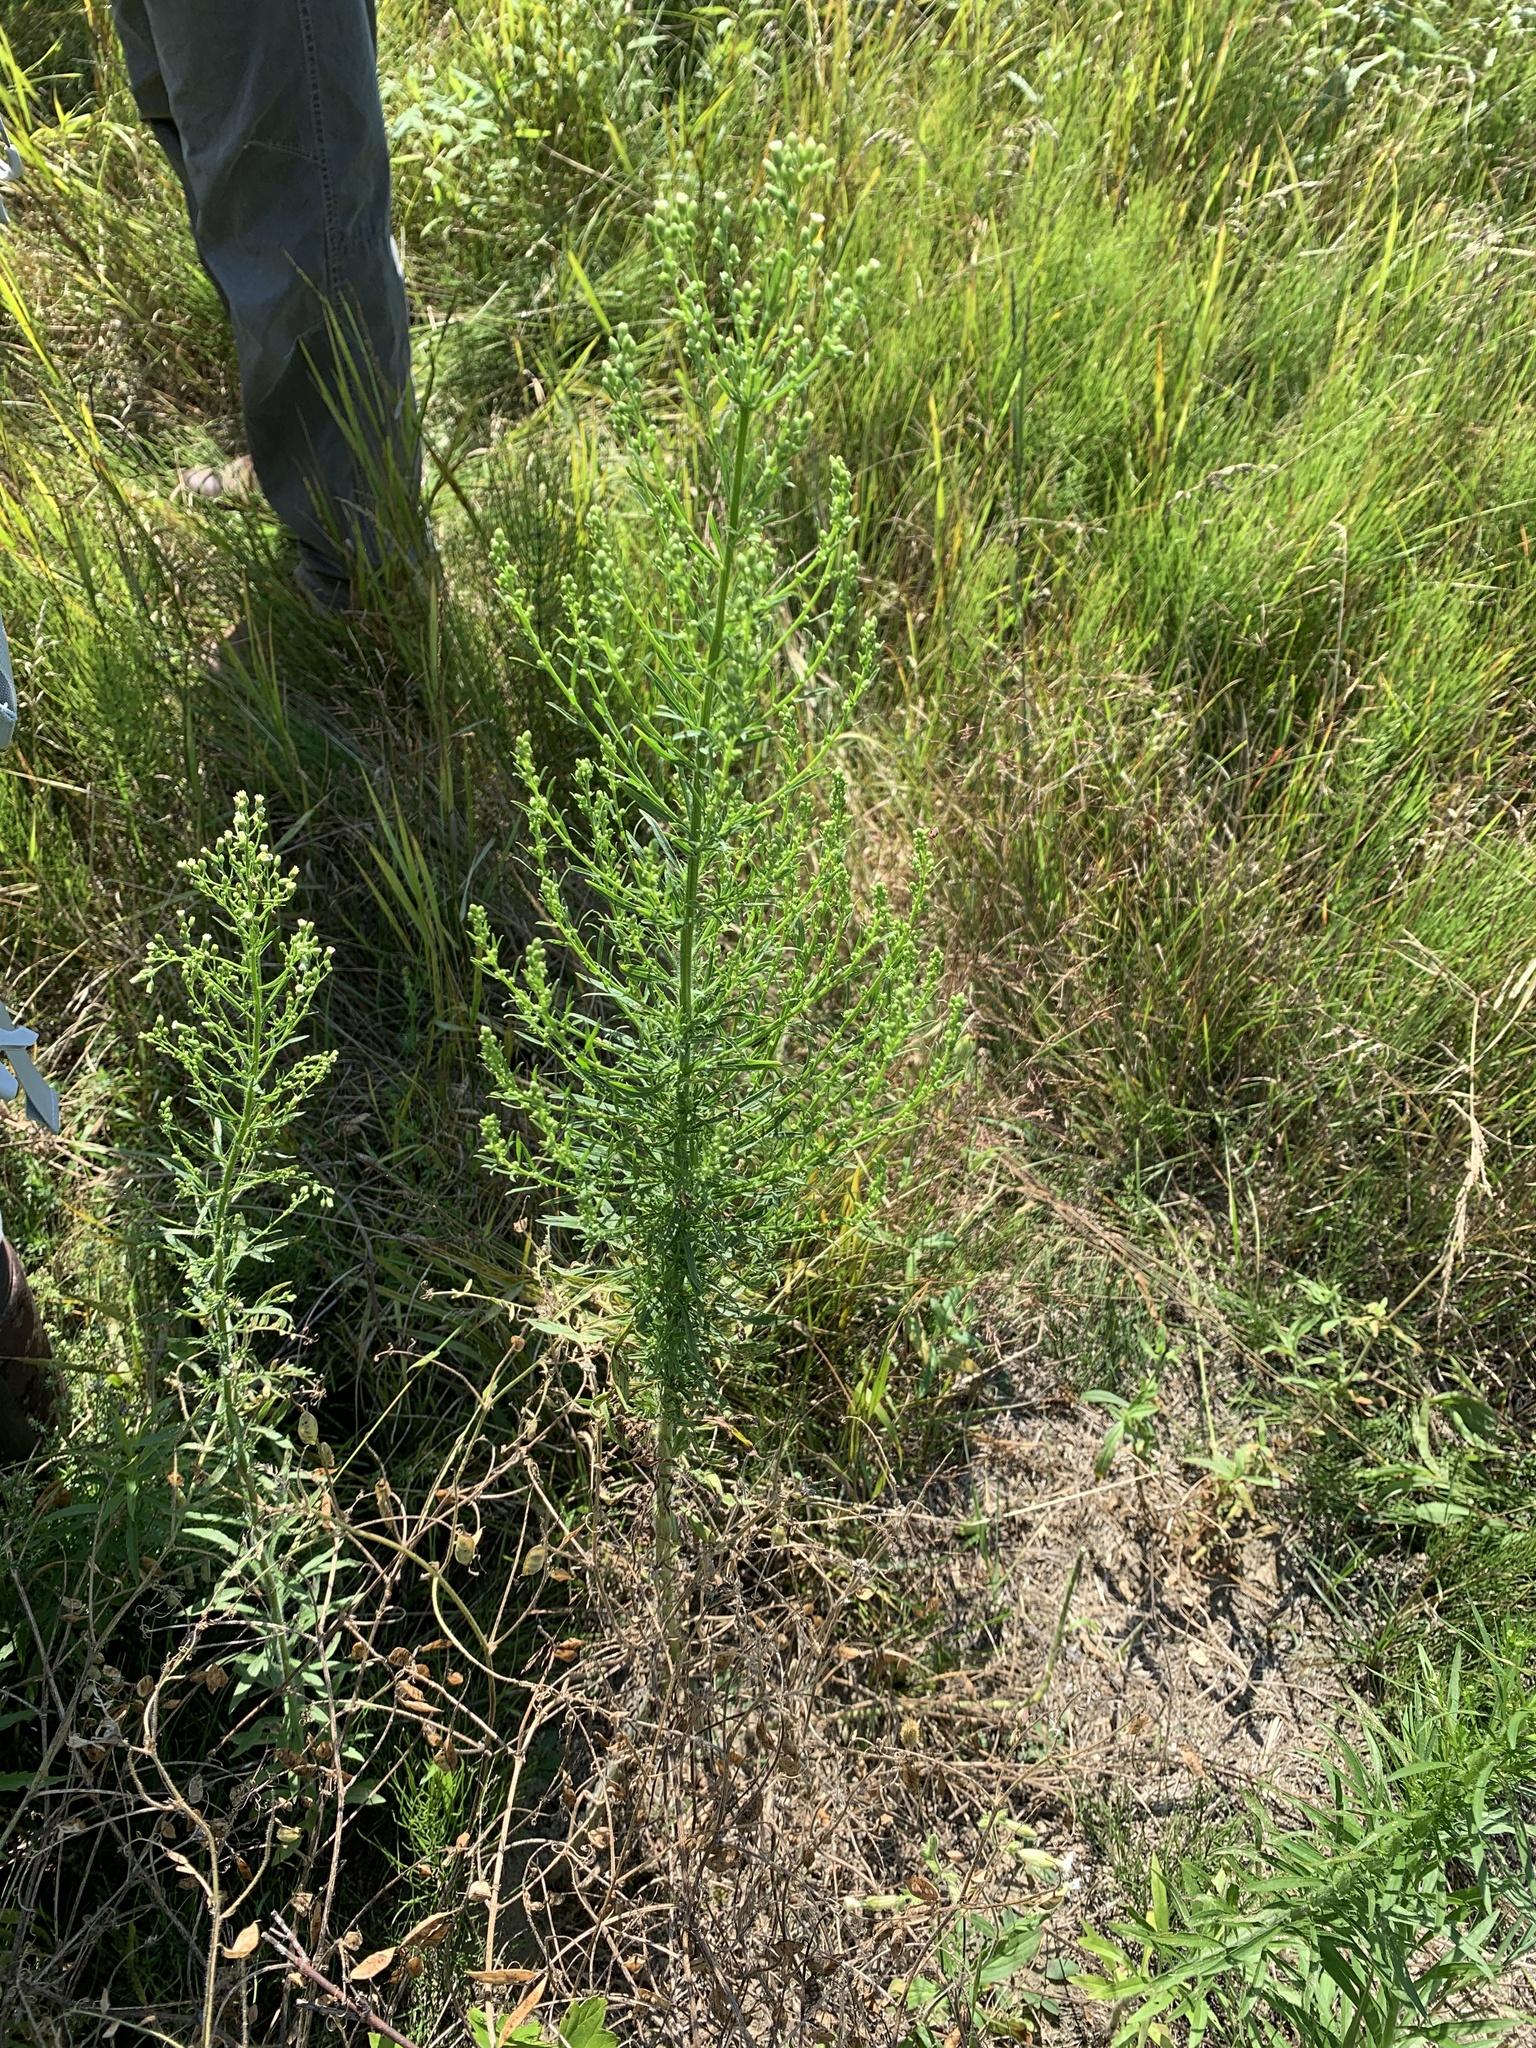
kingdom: Plantae
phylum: Tracheophyta
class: Magnoliopsida
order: Asterales
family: Asteraceae
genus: Erigeron
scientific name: Erigeron canadensis
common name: Canadian fleabane
